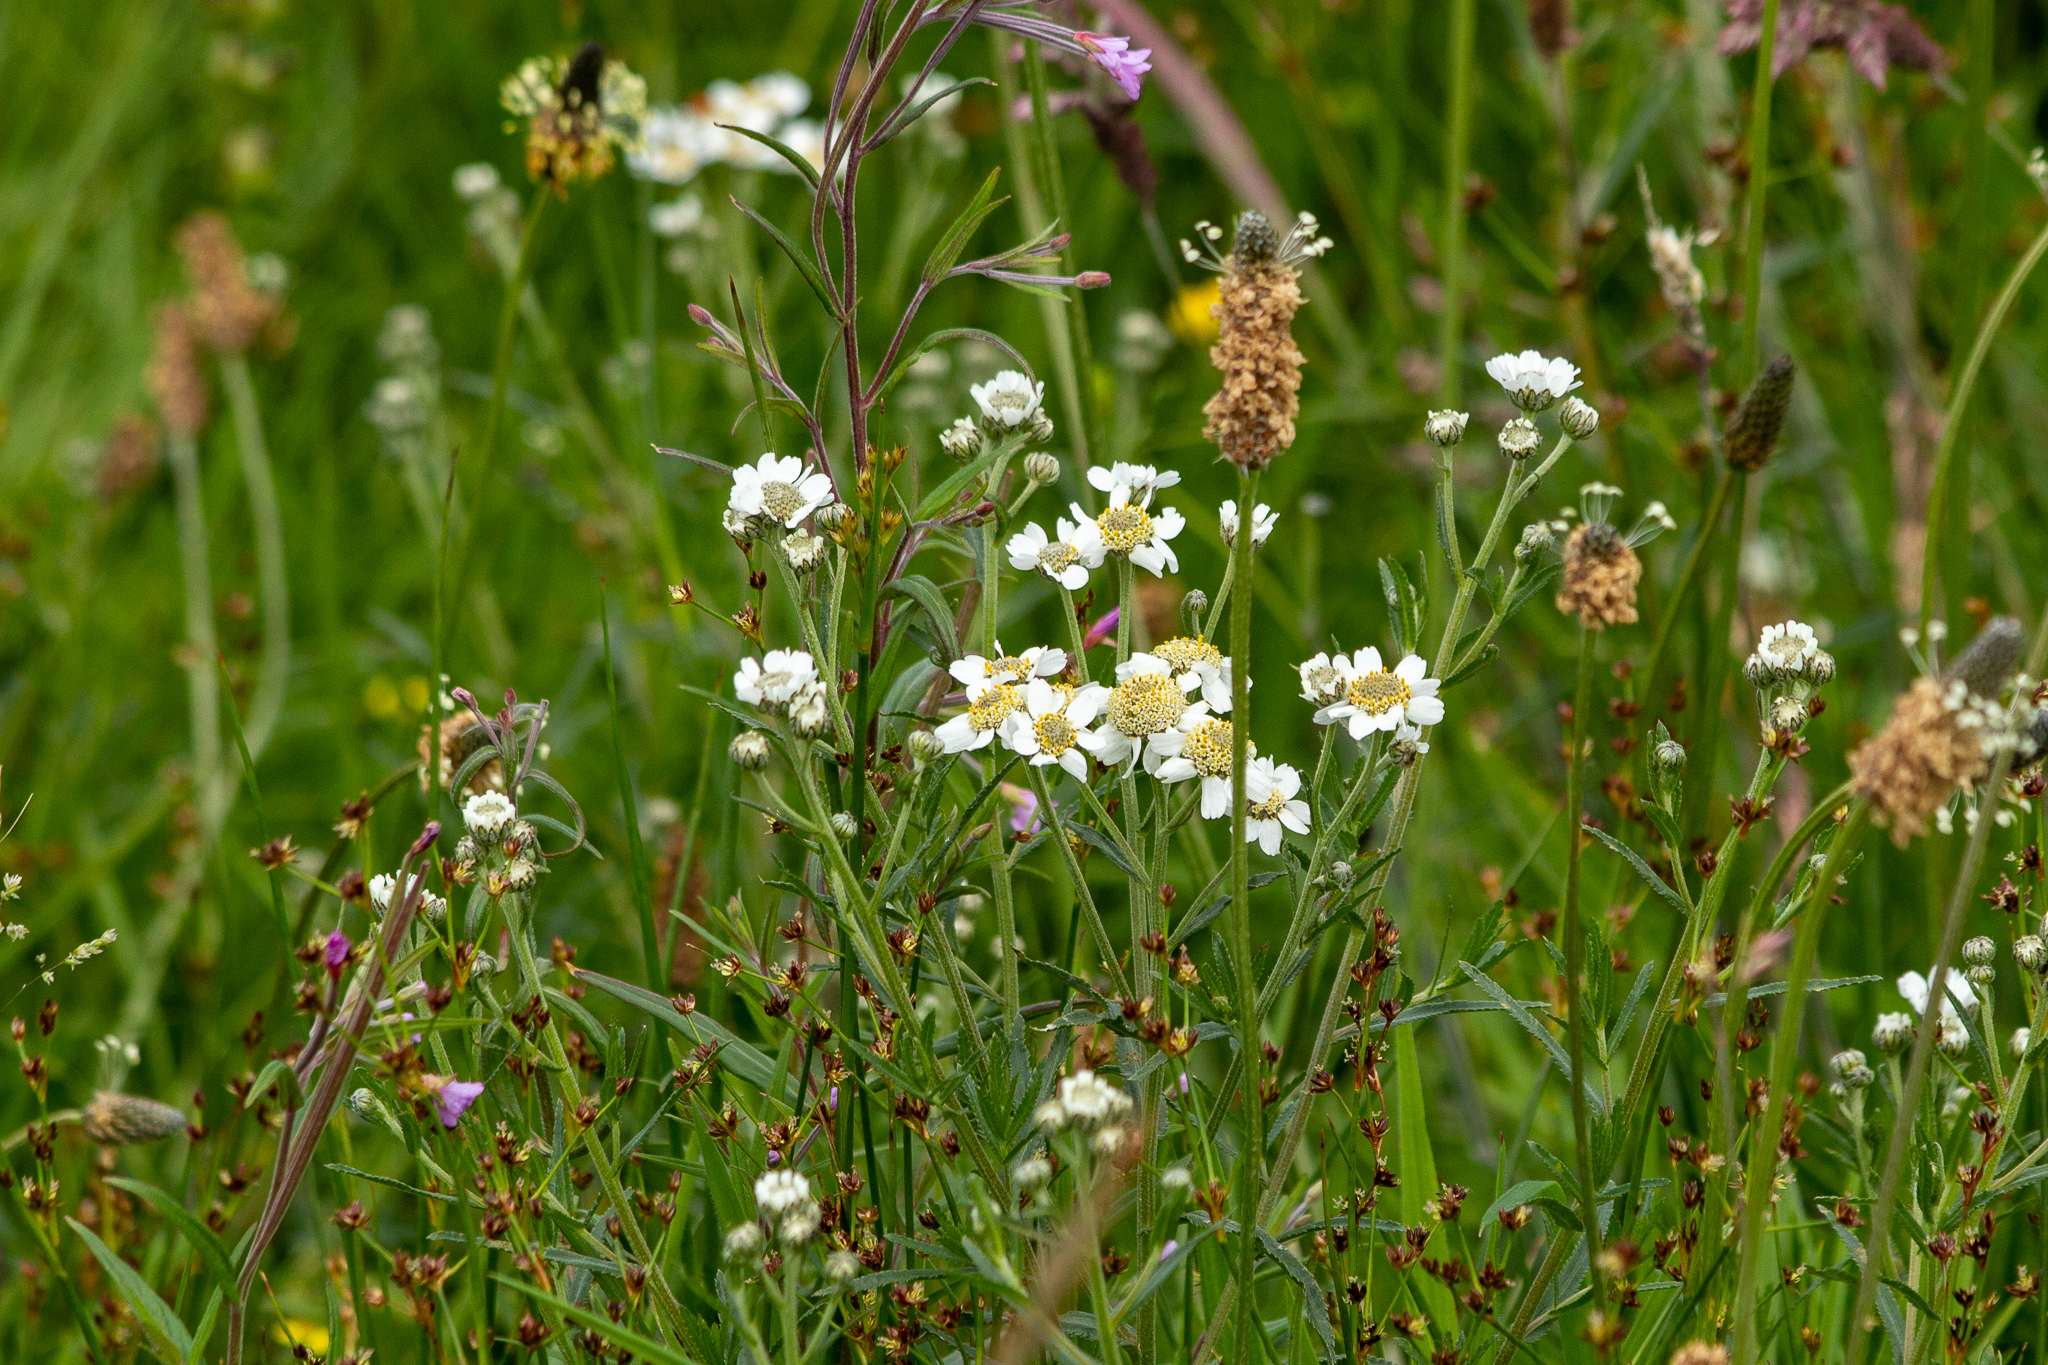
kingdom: Plantae
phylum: Tracheophyta
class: Magnoliopsida
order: Asterales
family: Asteraceae
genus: Achillea
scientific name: Achillea ptarmica
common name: Sneezeweed
